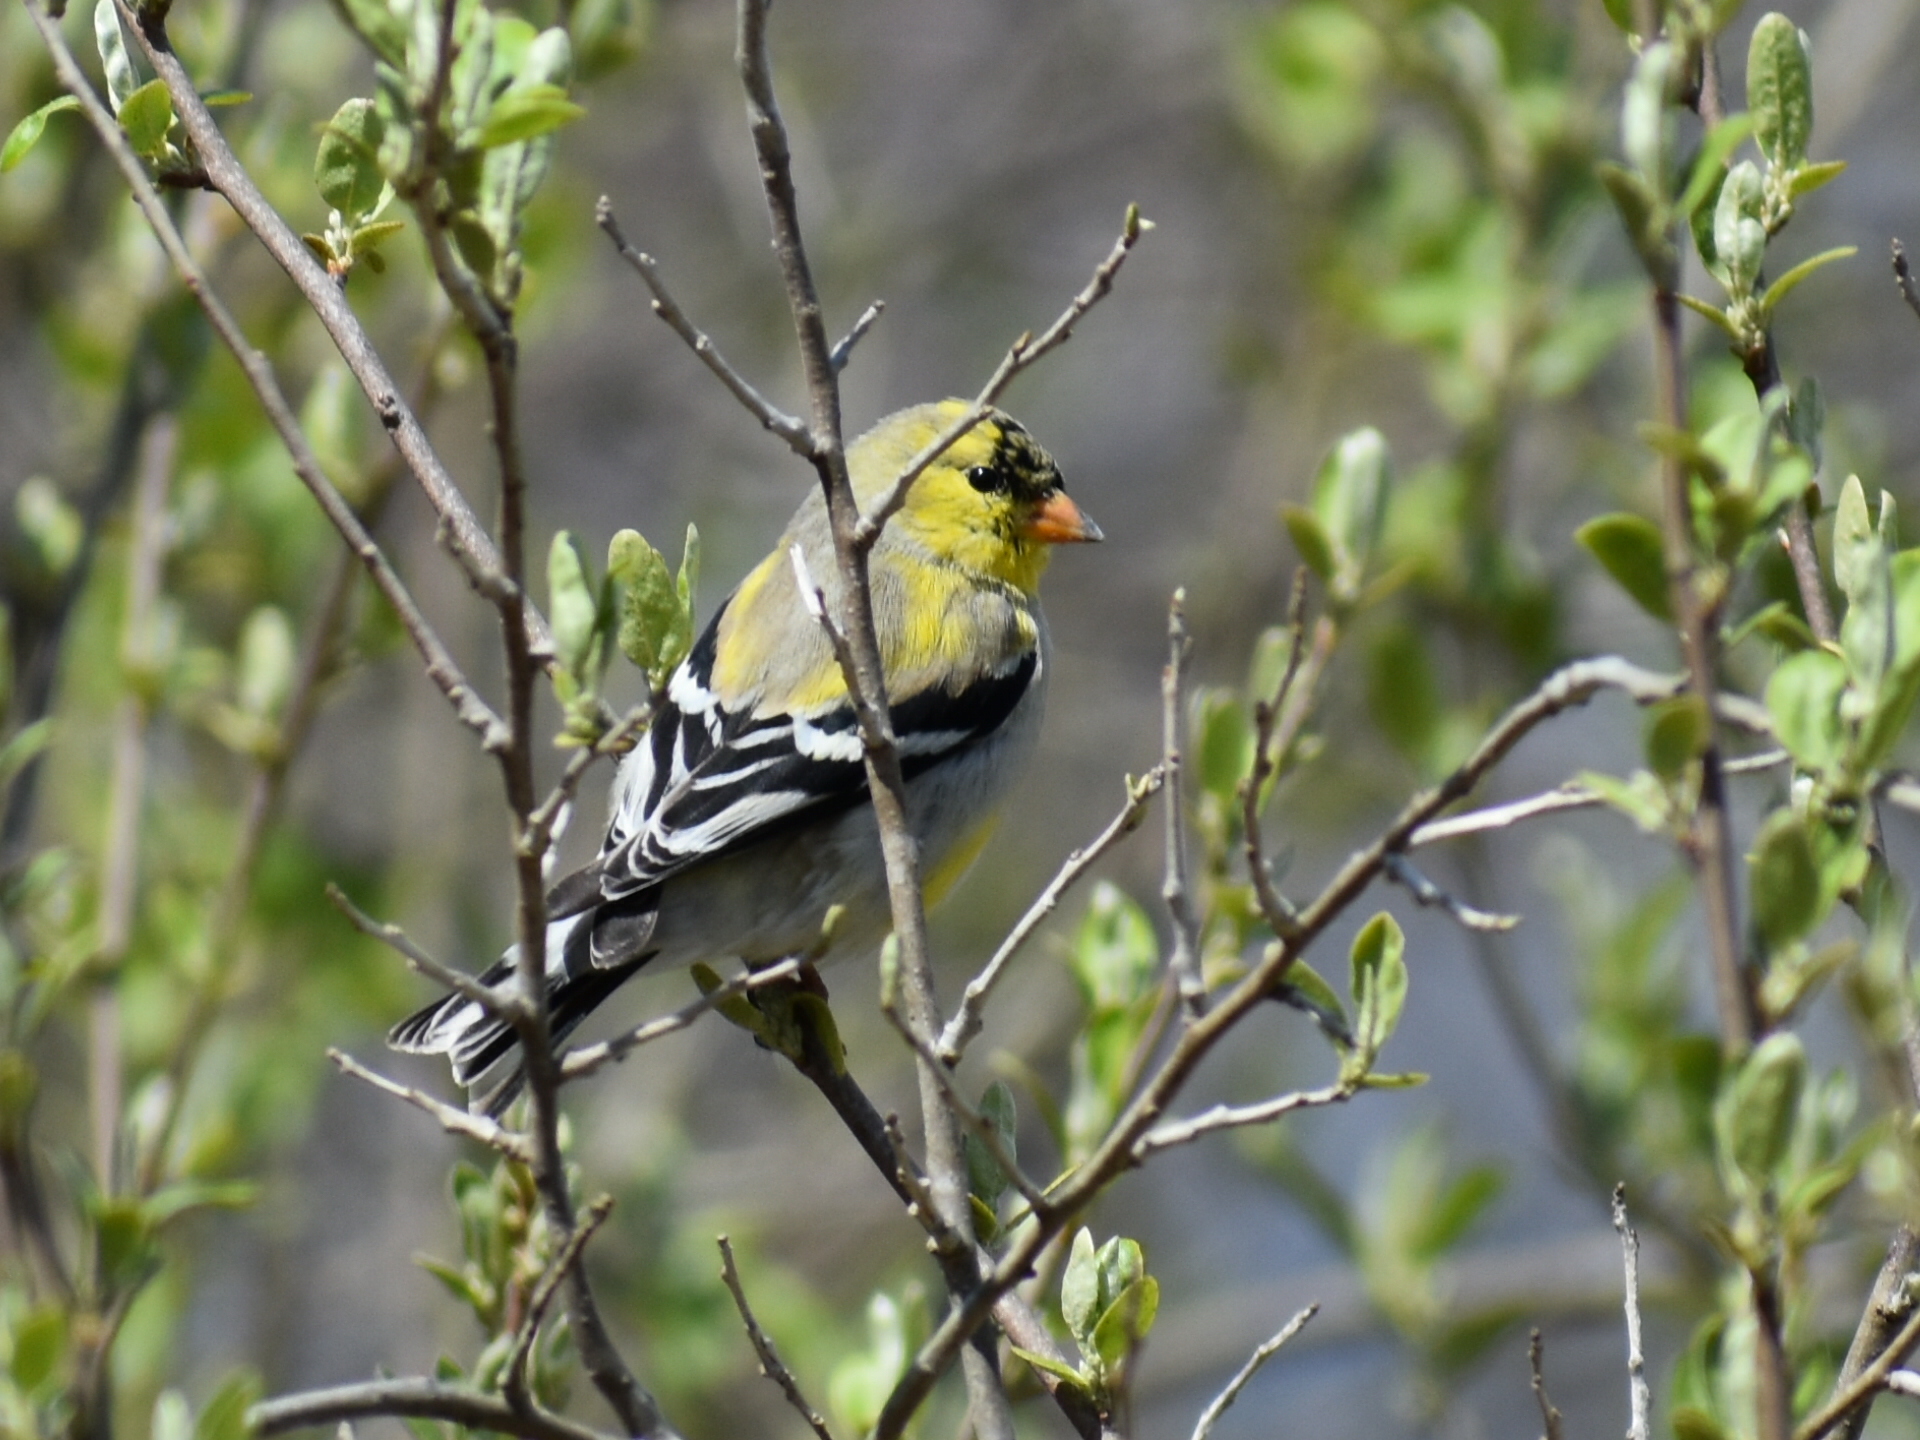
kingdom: Animalia
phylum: Chordata
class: Aves
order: Passeriformes
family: Fringillidae
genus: Spinus
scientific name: Spinus tristis
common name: American goldfinch
